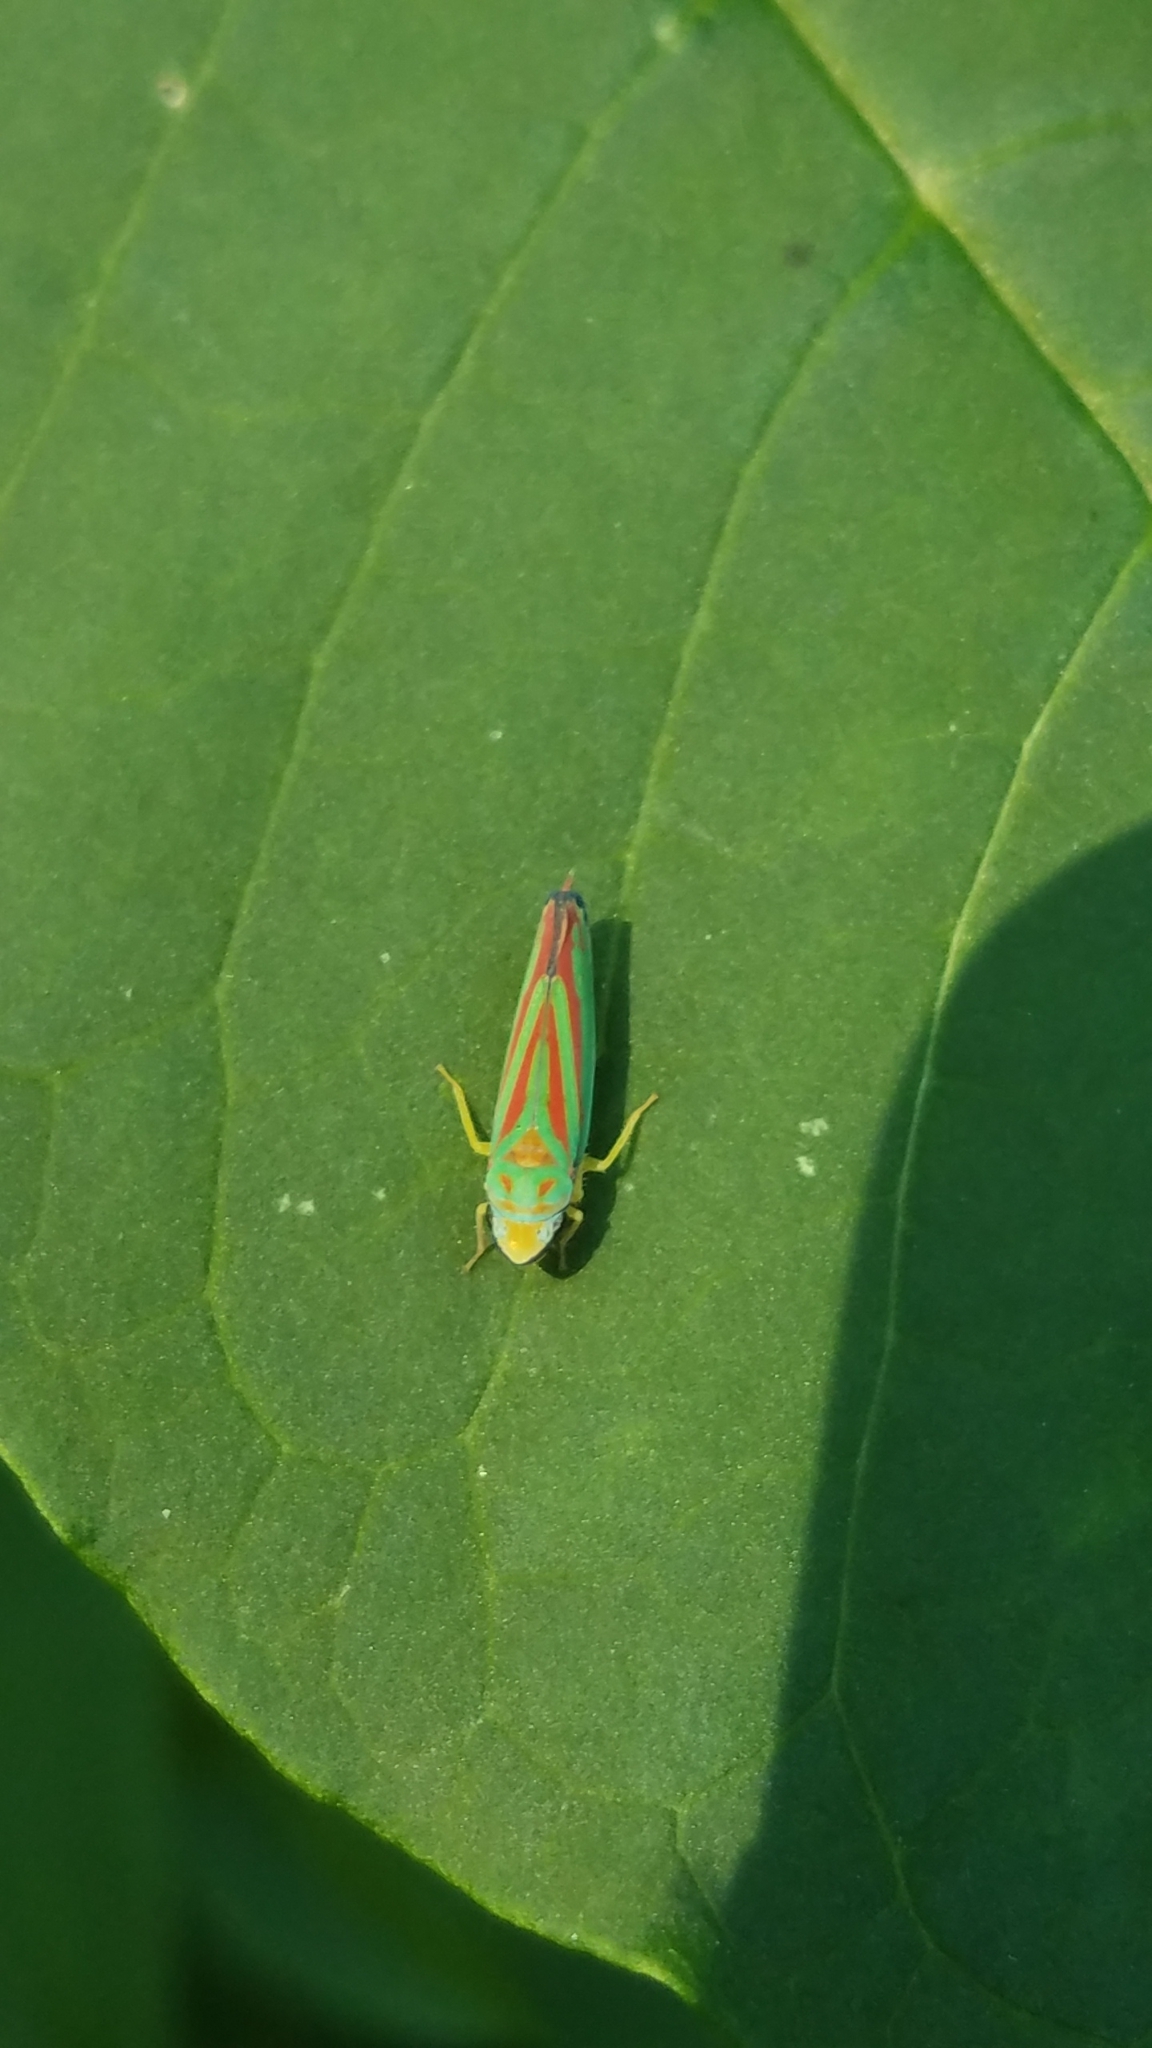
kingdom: Animalia
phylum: Arthropoda
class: Insecta
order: Hemiptera
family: Cicadellidae
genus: Graphocephala
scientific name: Graphocephala fennahi
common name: Rhododendron leafhopper
